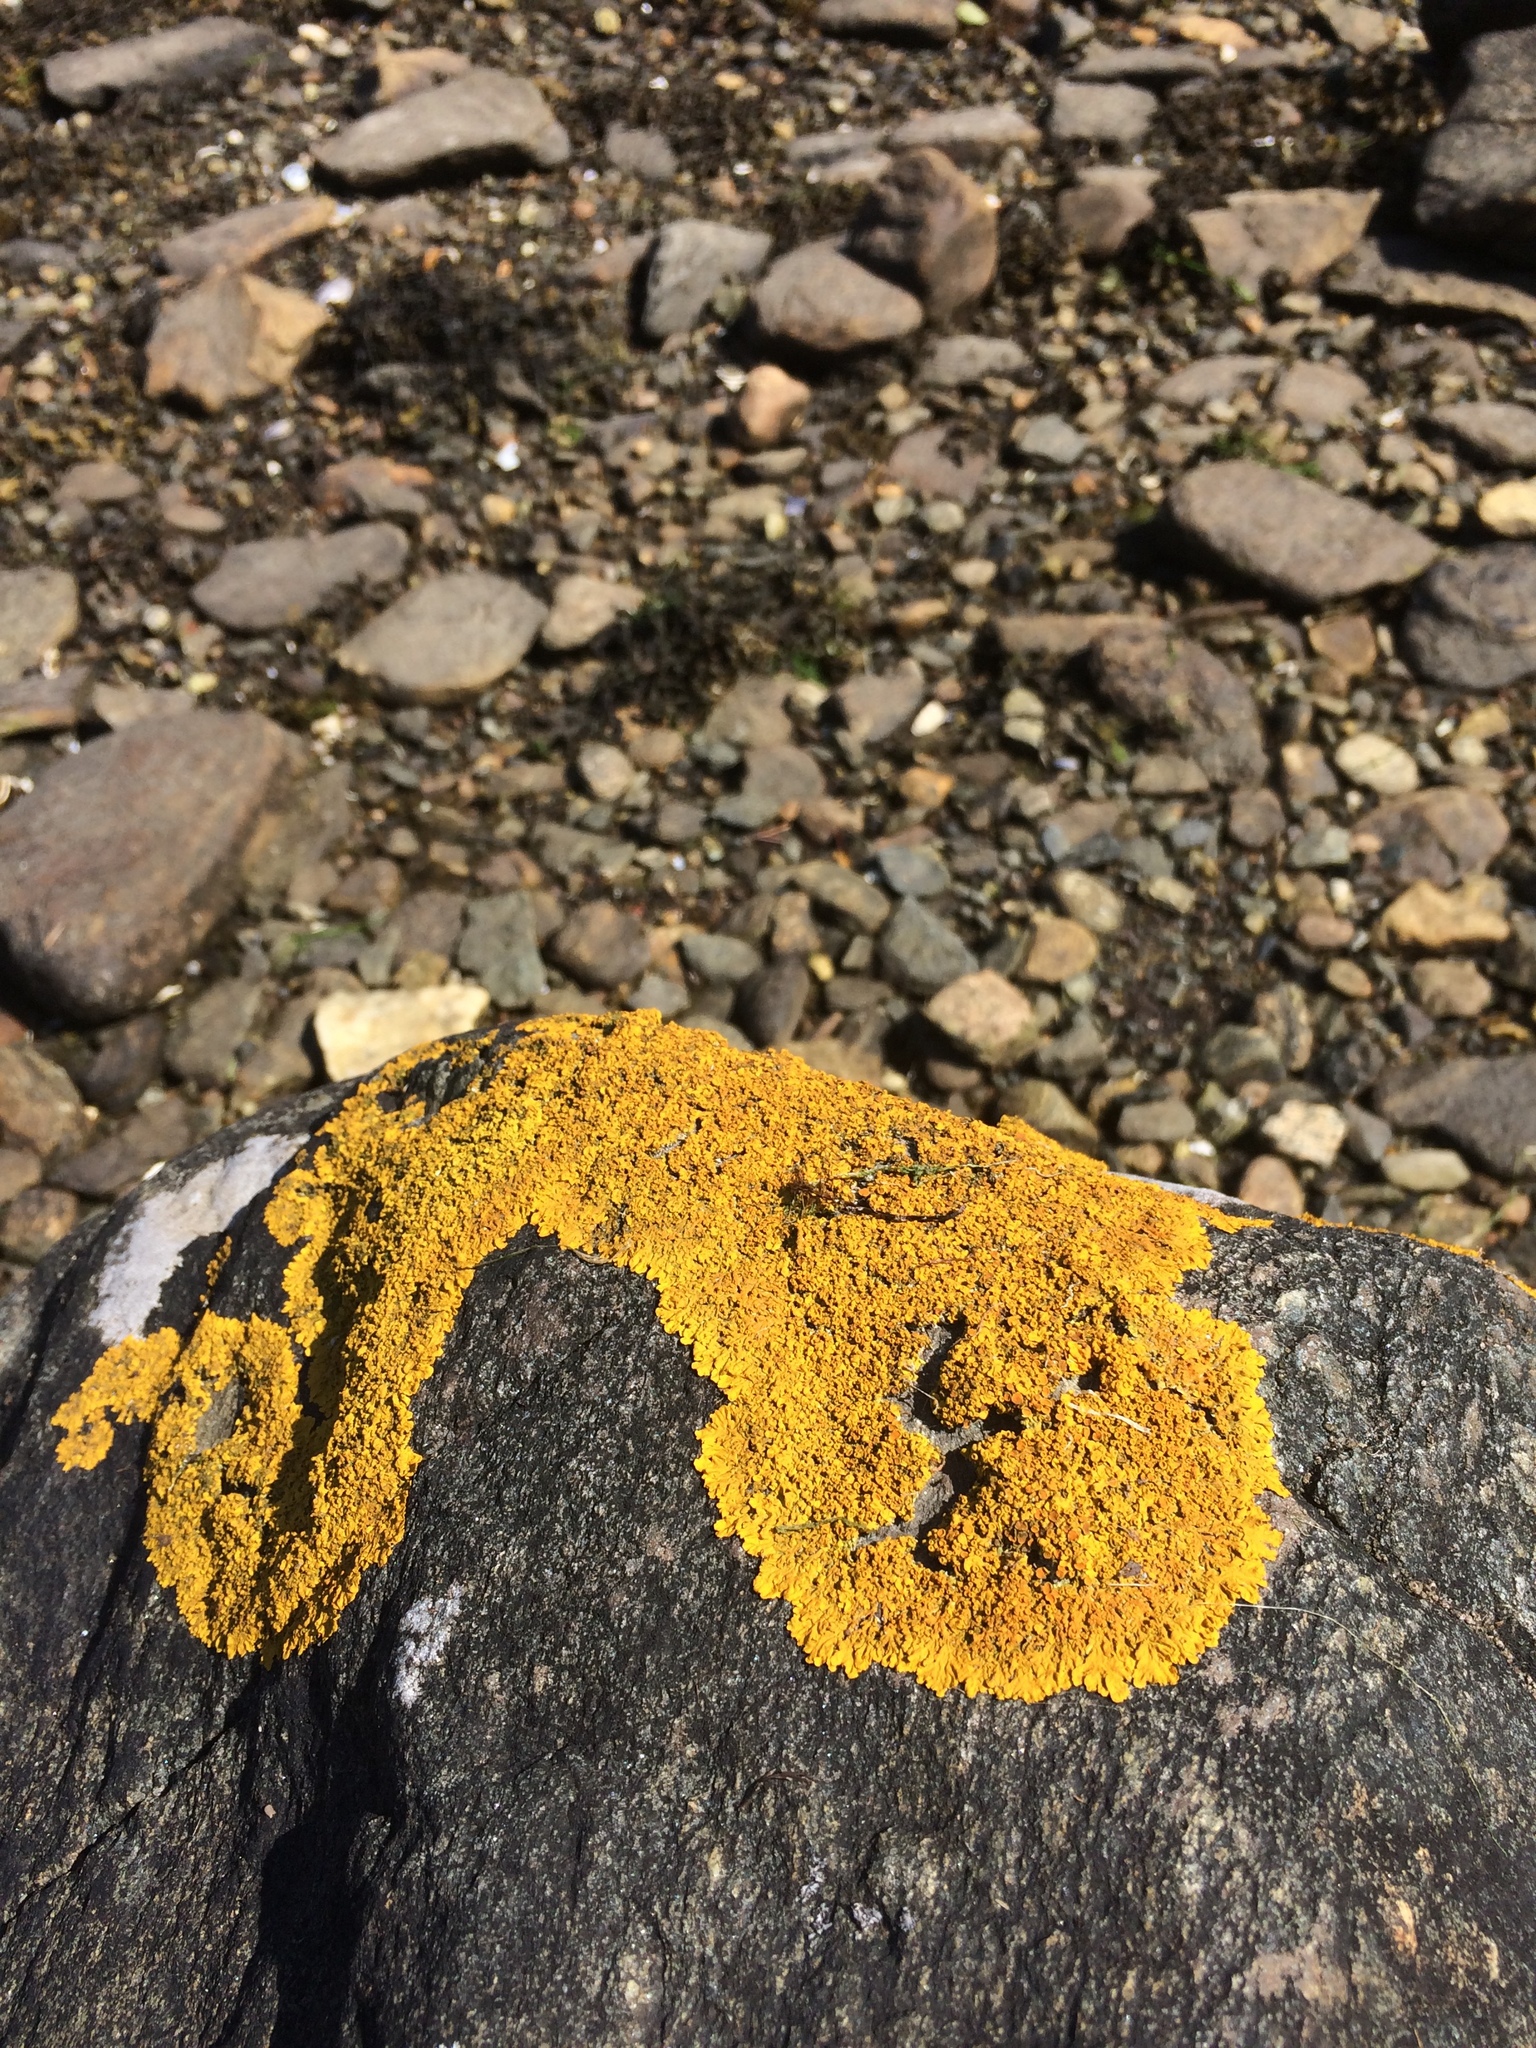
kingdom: Fungi
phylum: Ascomycota
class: Lecanoromycetes
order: Teloschistales
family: Teloschistaceae
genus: Xanthoria
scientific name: Xanthoria parietina
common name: Common orange lichen
